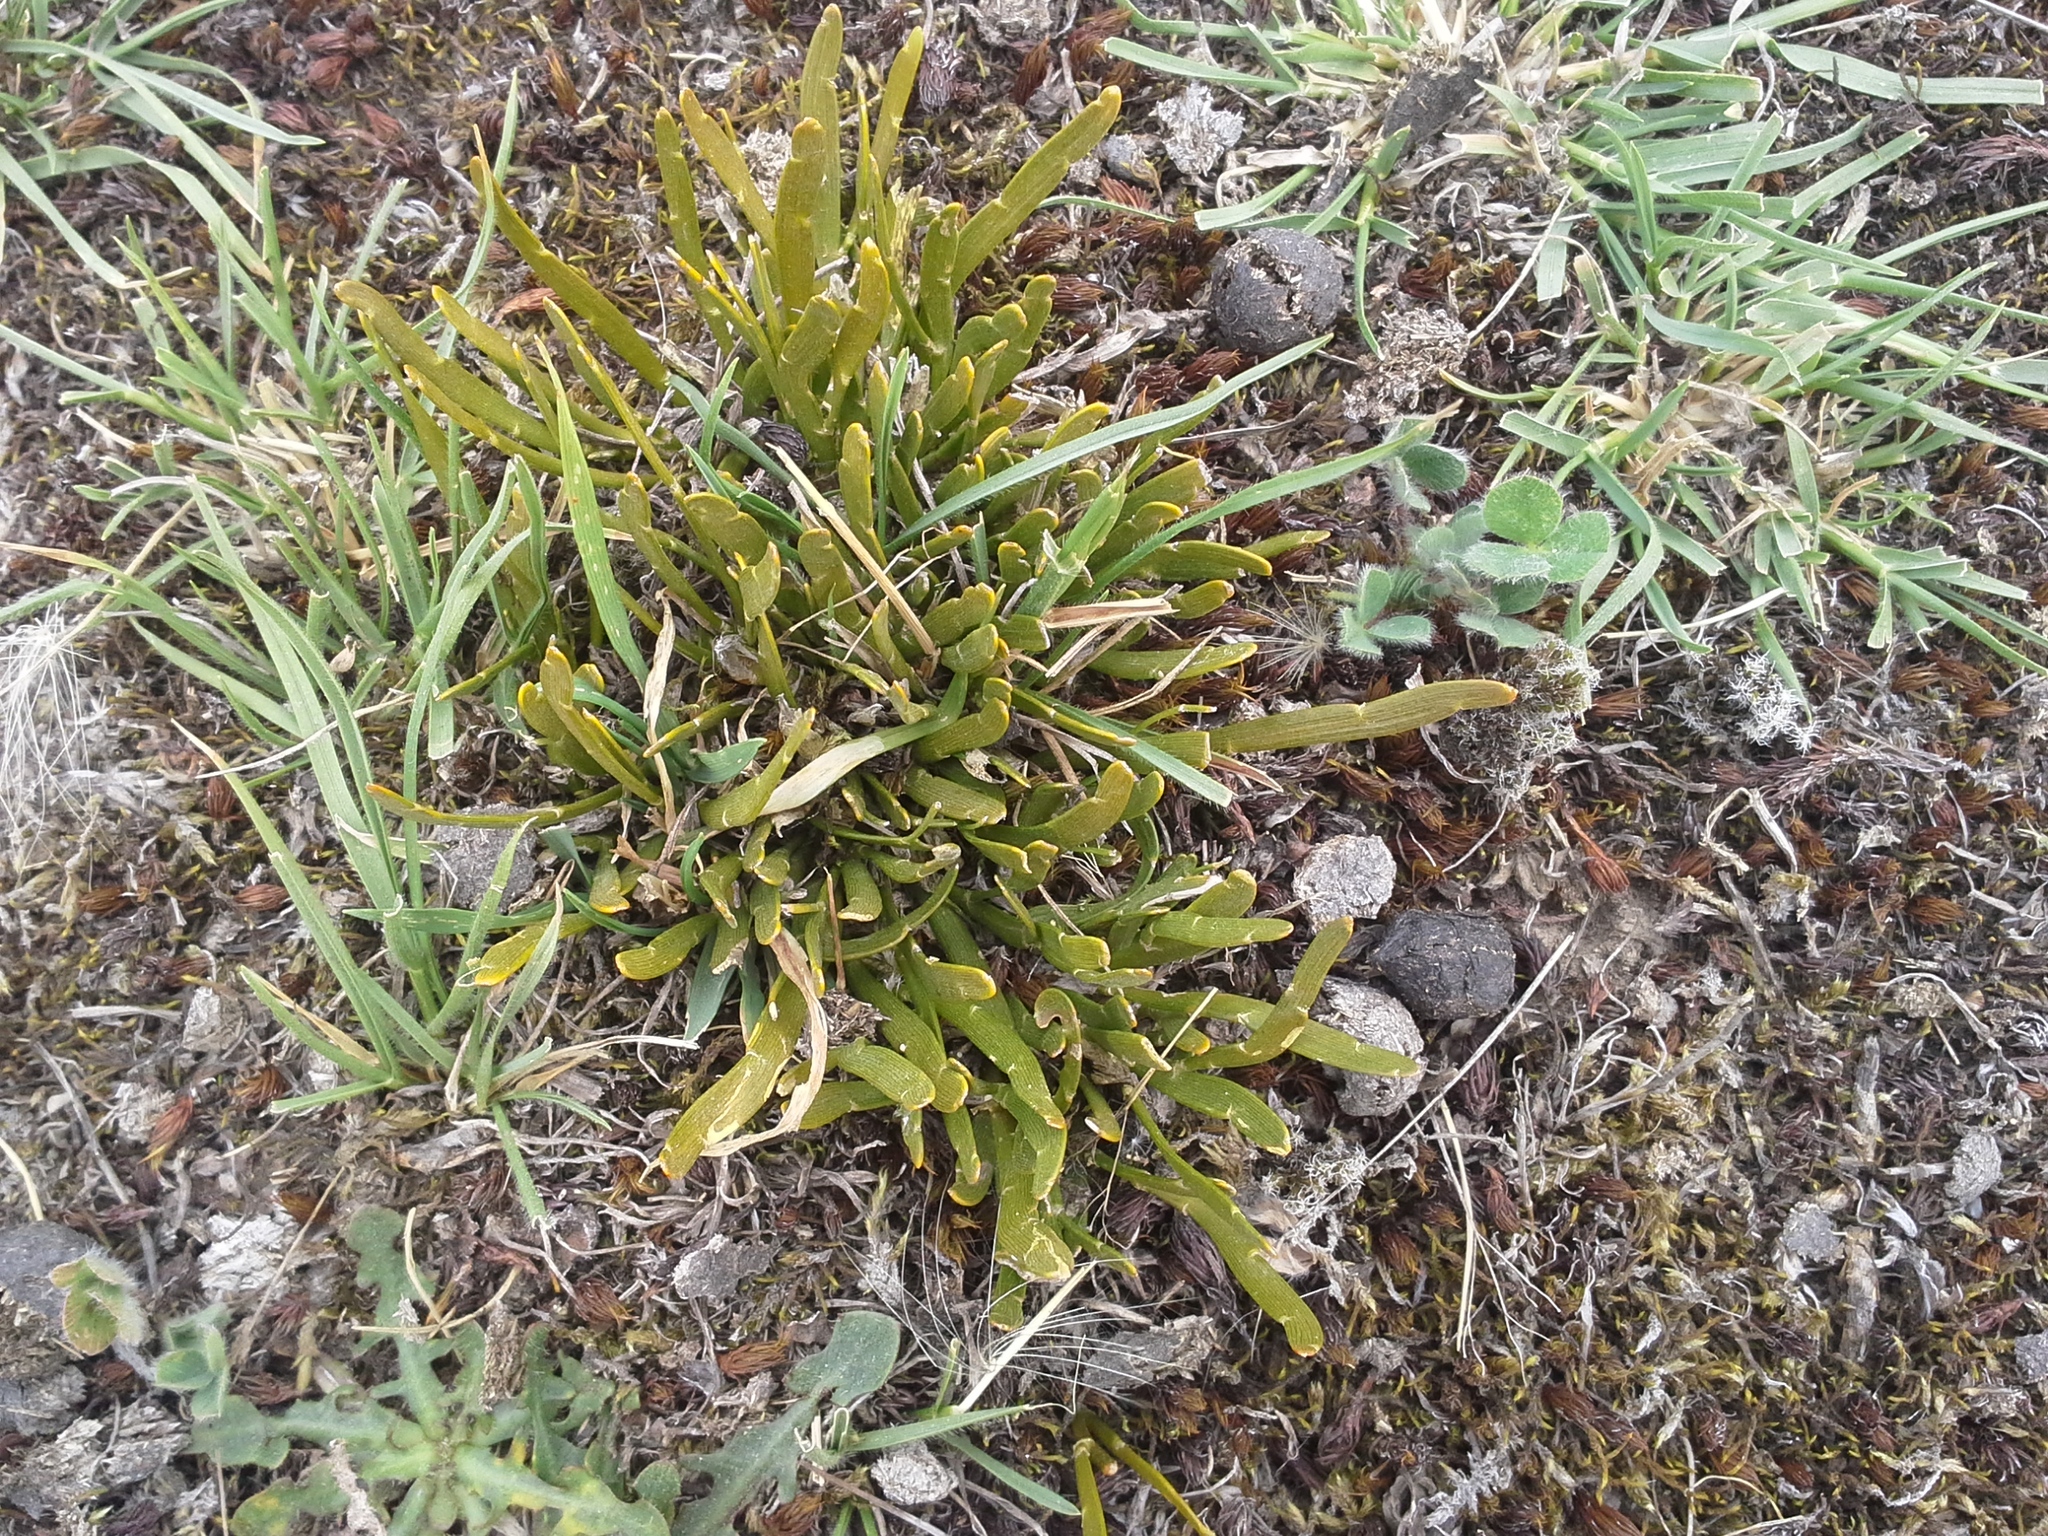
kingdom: Plantae
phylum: Tracheophyta
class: Magnoliopsida
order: Fabales
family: Fabaceae
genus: Carmichaelia
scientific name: Carmichaelia corrugata
